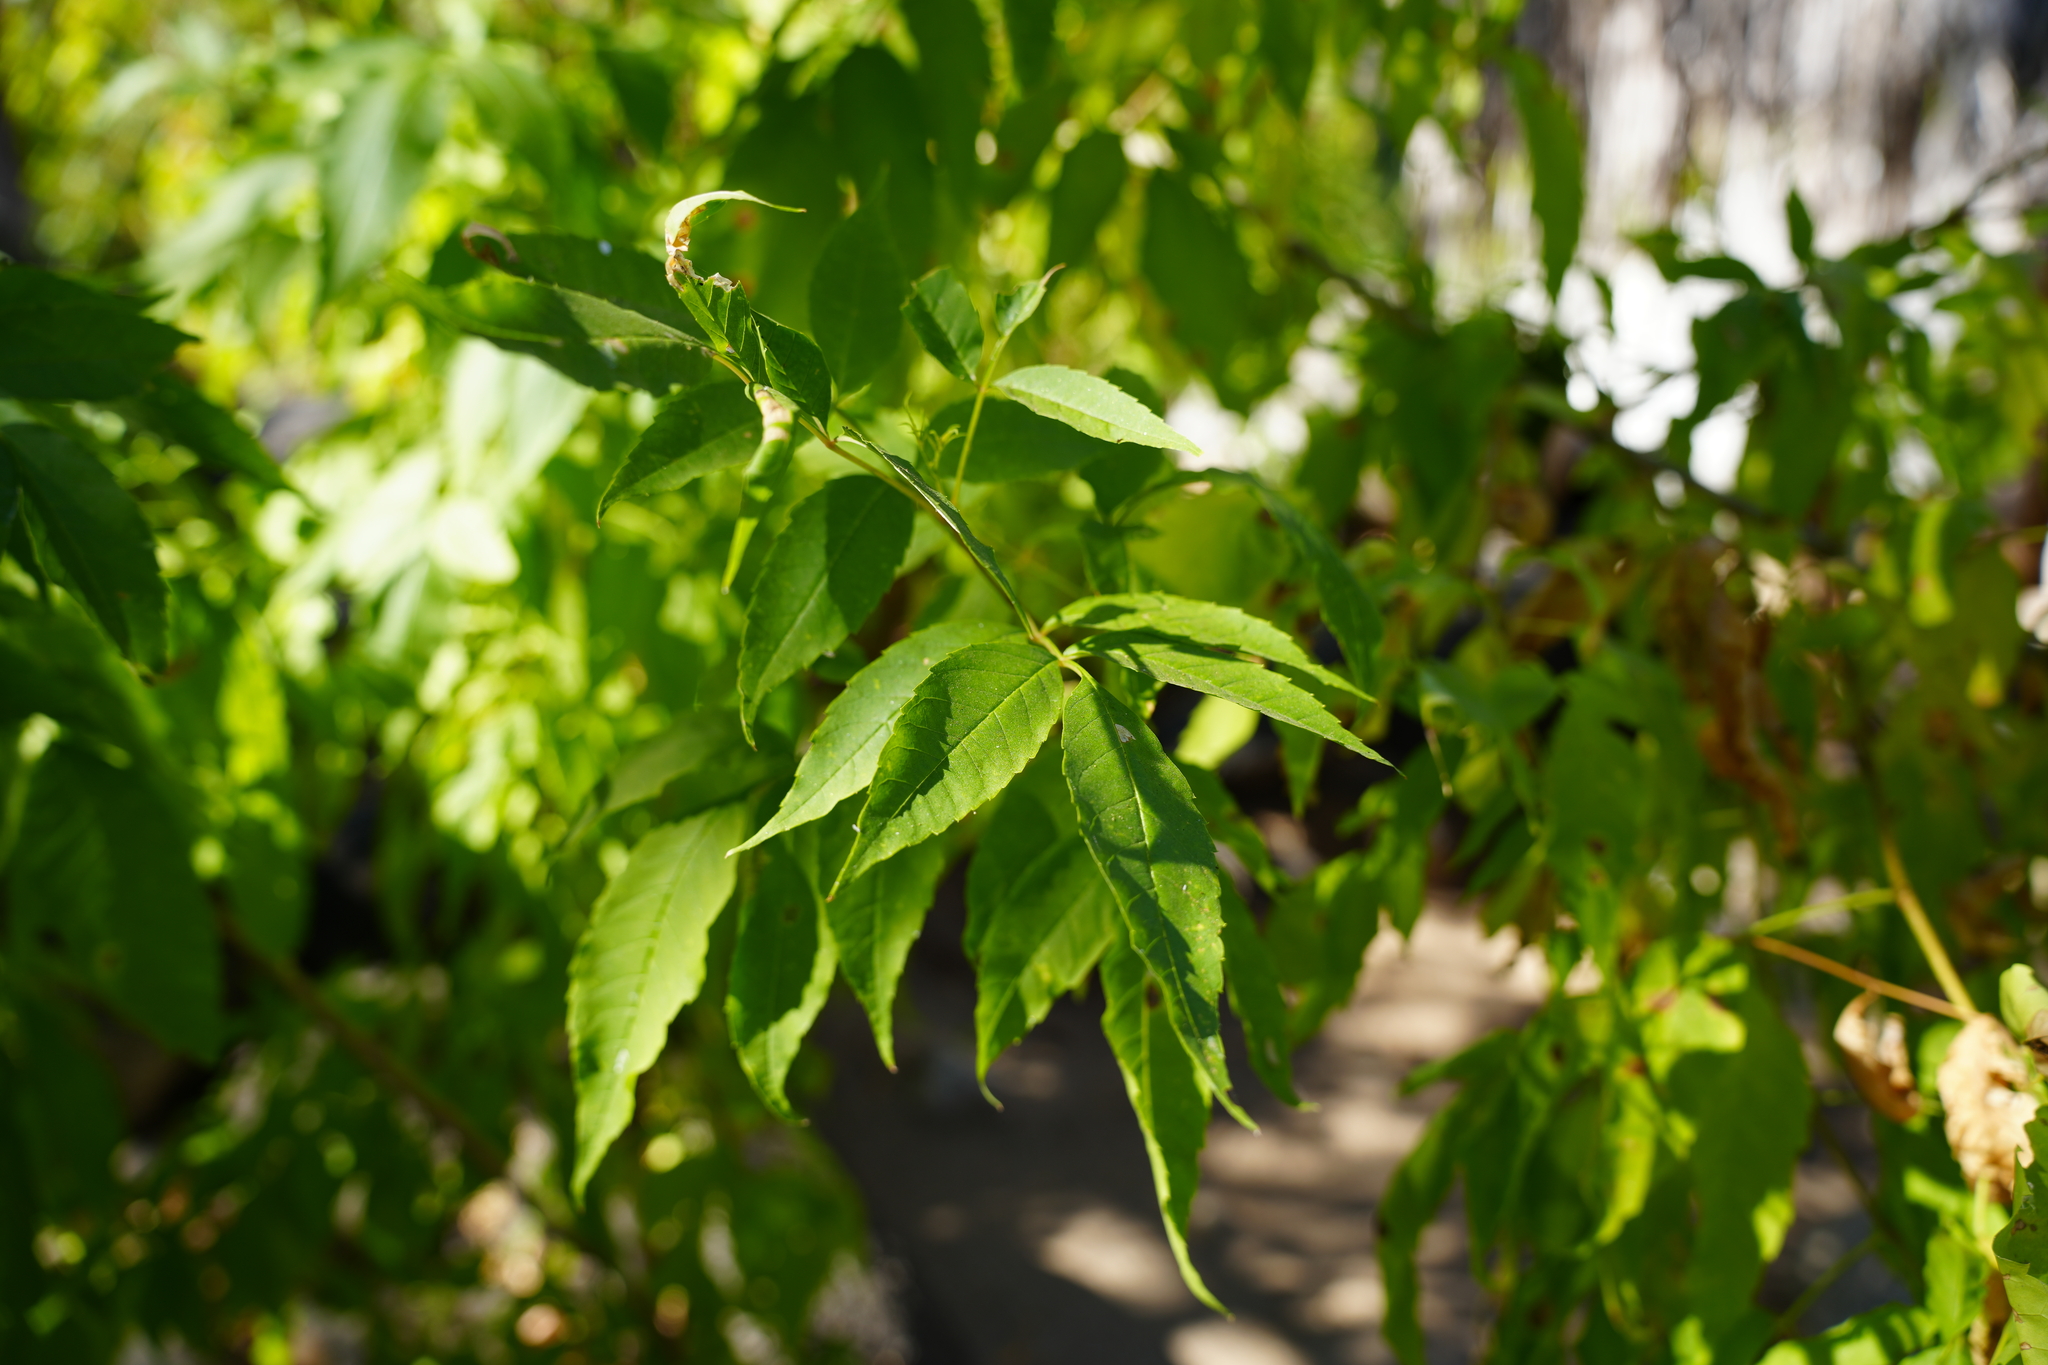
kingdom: Plantae
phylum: Tracheophyta
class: Magnoliopsida
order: Lamiales
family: Bignoniaceae
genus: Tecoma
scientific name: Tecoma stans
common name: Yellow trumpetbush
